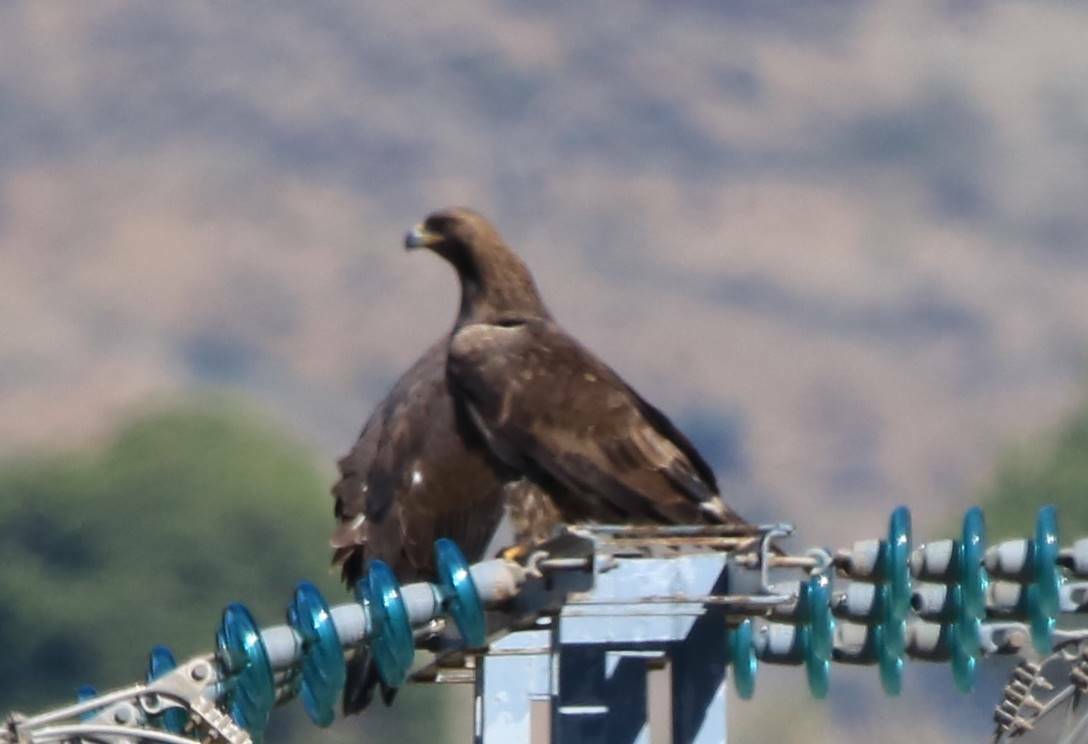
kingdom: Animalia
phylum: Chordata
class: Aves
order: Accipitriformes
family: Accipitridae
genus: Aquila
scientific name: Aquila chrysaetos
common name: Golden eagle
